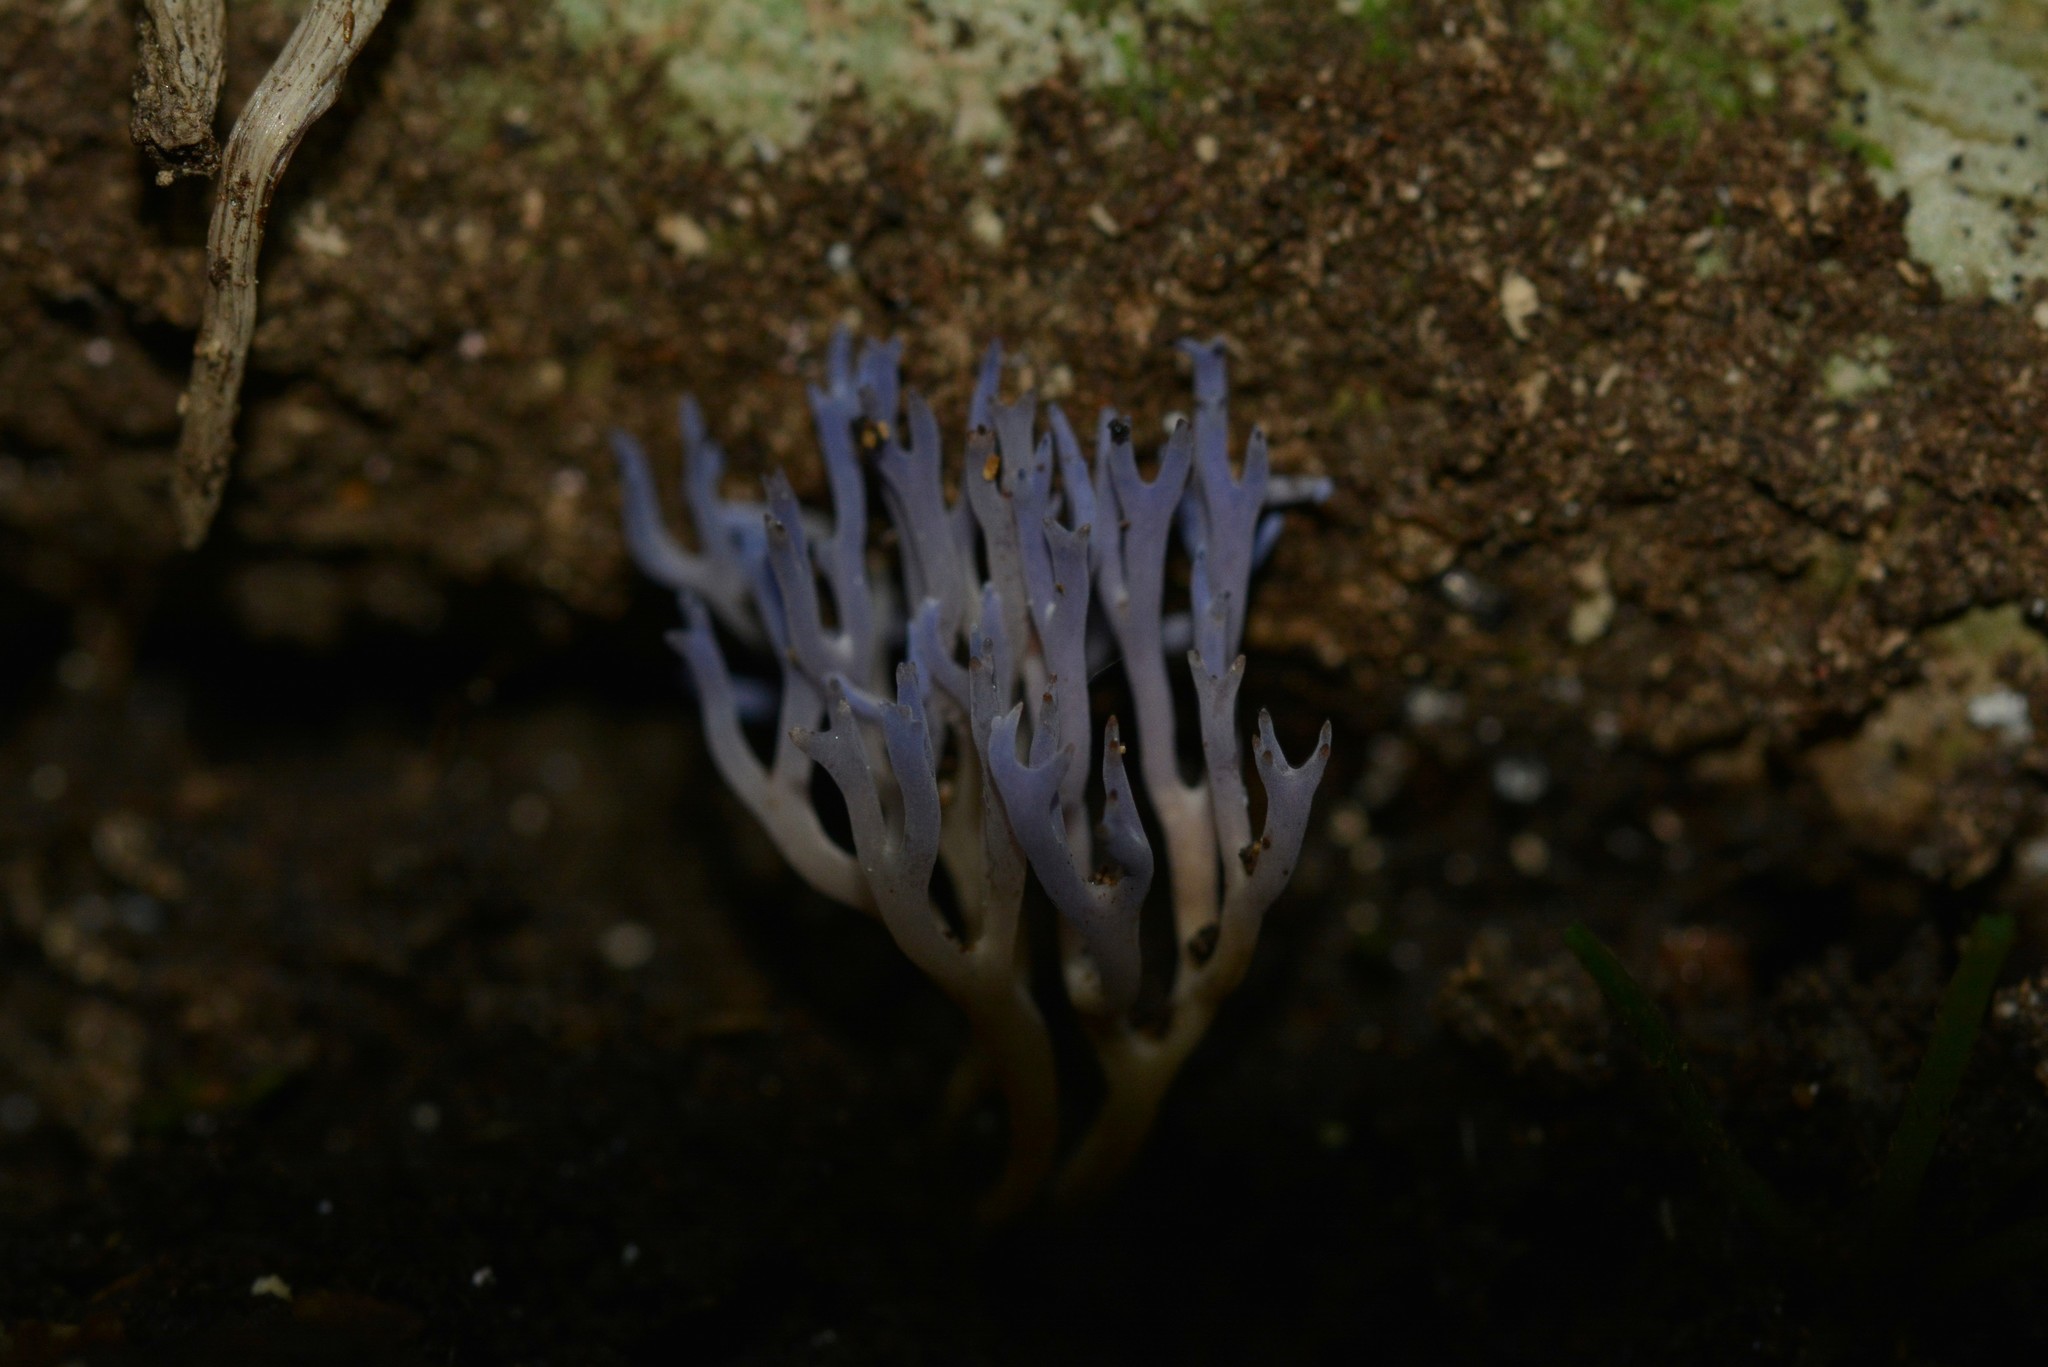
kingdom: Fungi
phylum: Basidiomycota
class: Agaricomycetes
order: Agaricales
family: Clavariaceae
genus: Ramariopsis
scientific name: Ramariopsis pulchella
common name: Lilac coral
